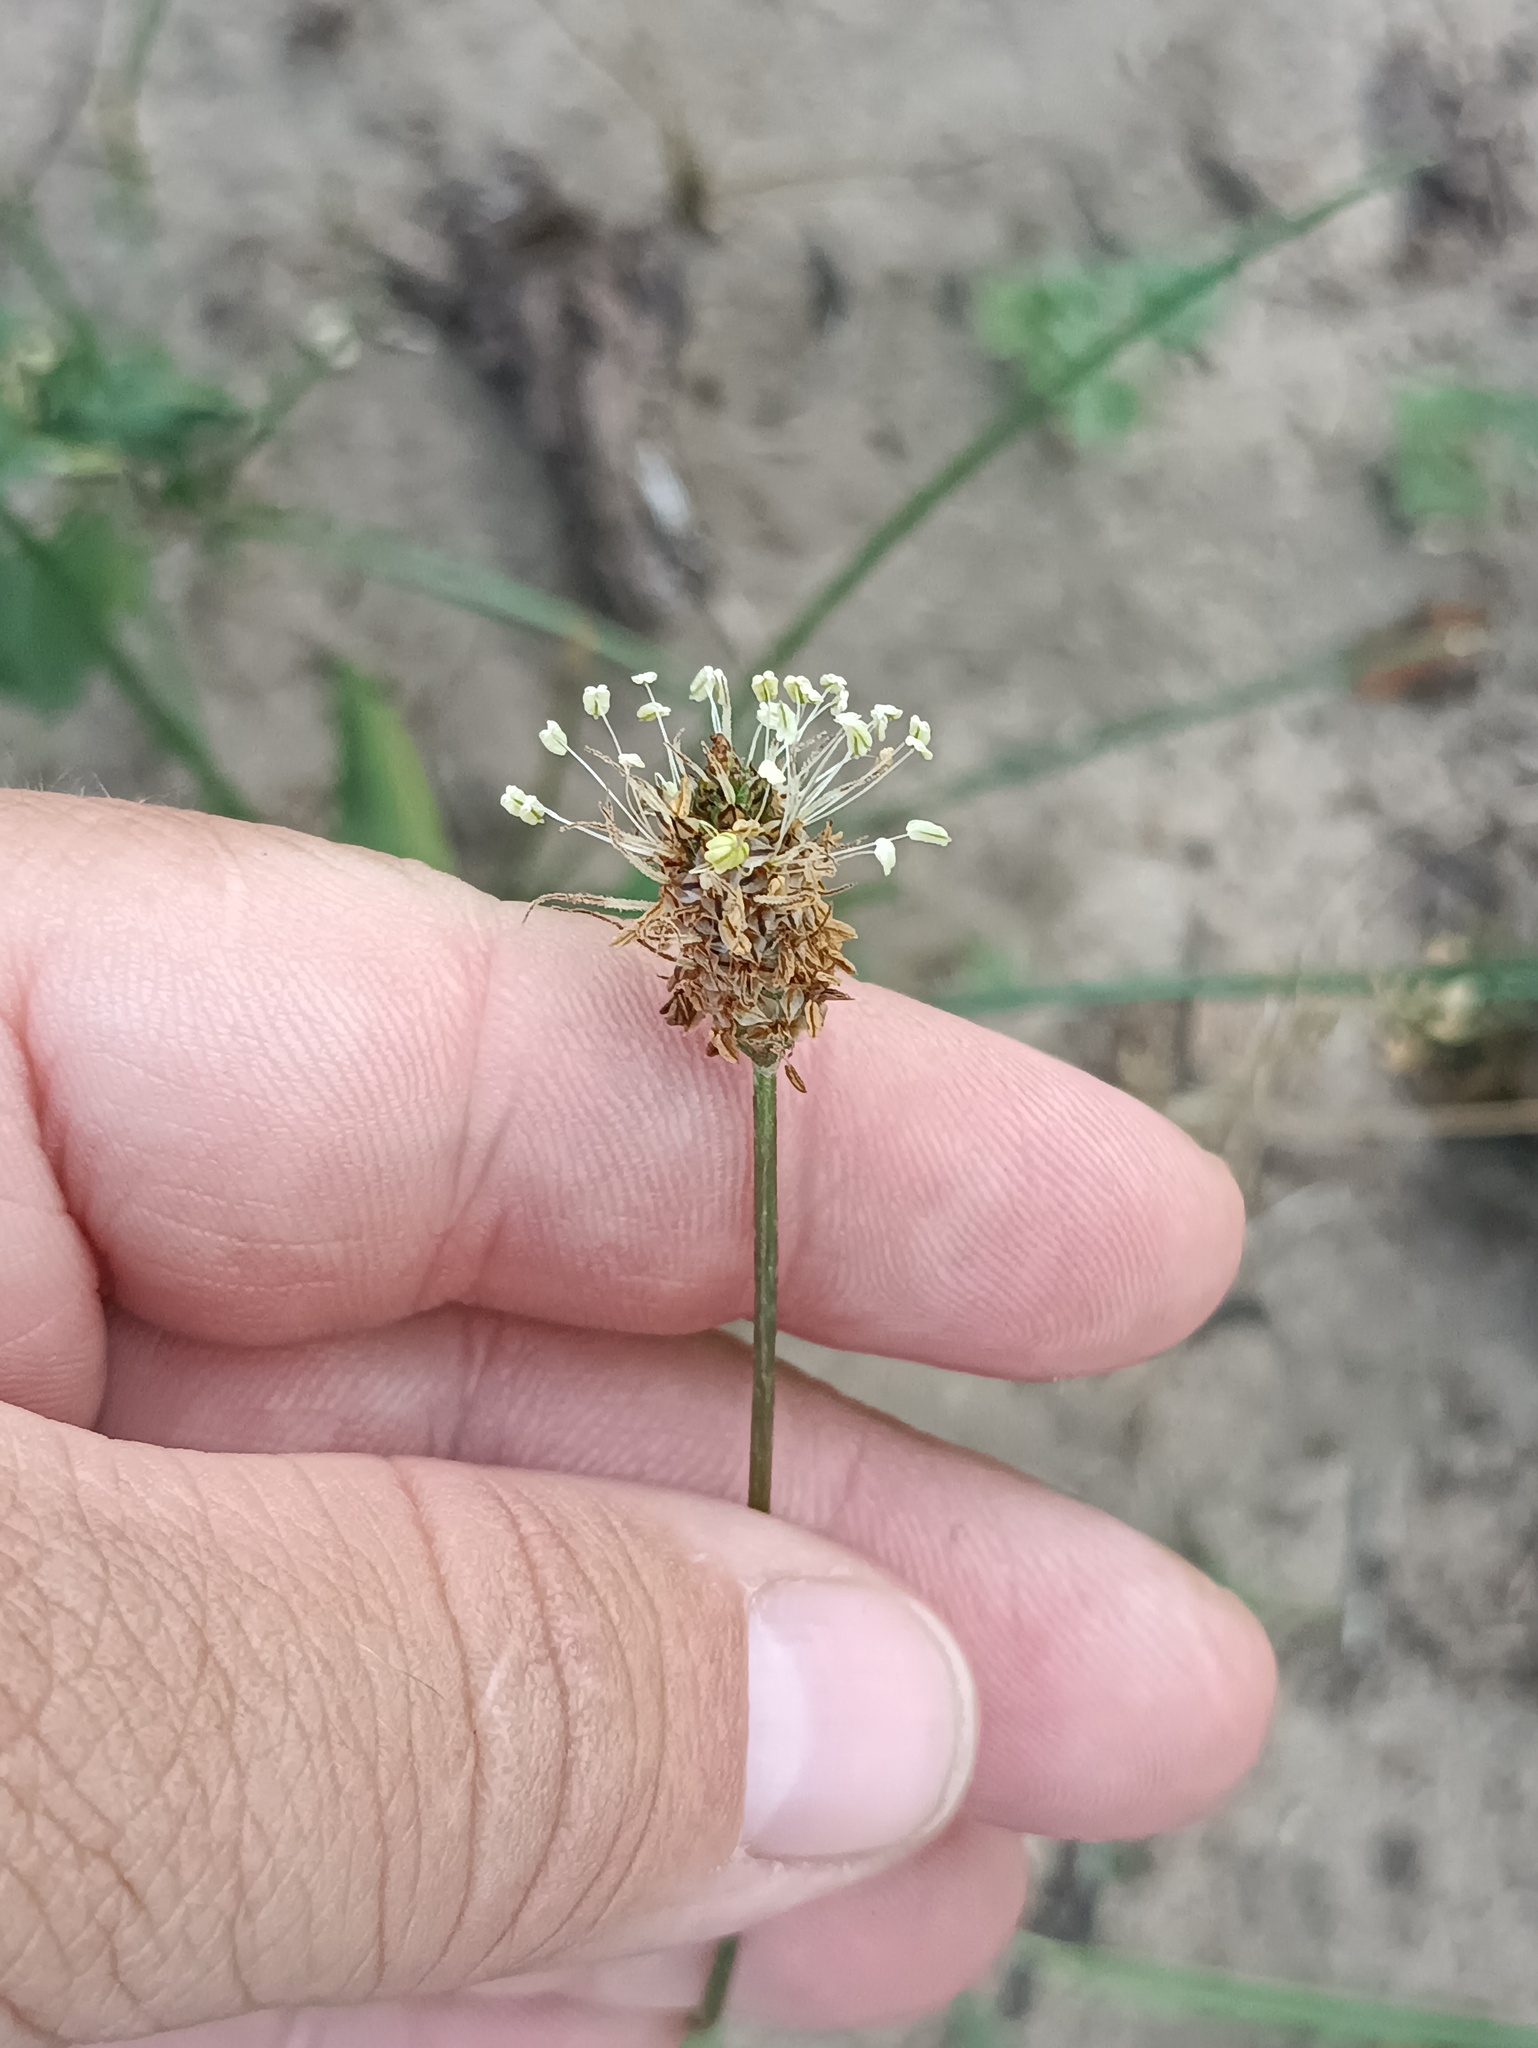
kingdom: Plantae
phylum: Tracheophyta
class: Magnoliopsida
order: Lamiales
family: Plantaginaceae
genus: Plantago
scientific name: Plantago lanceolata
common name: Ribwort plantain
